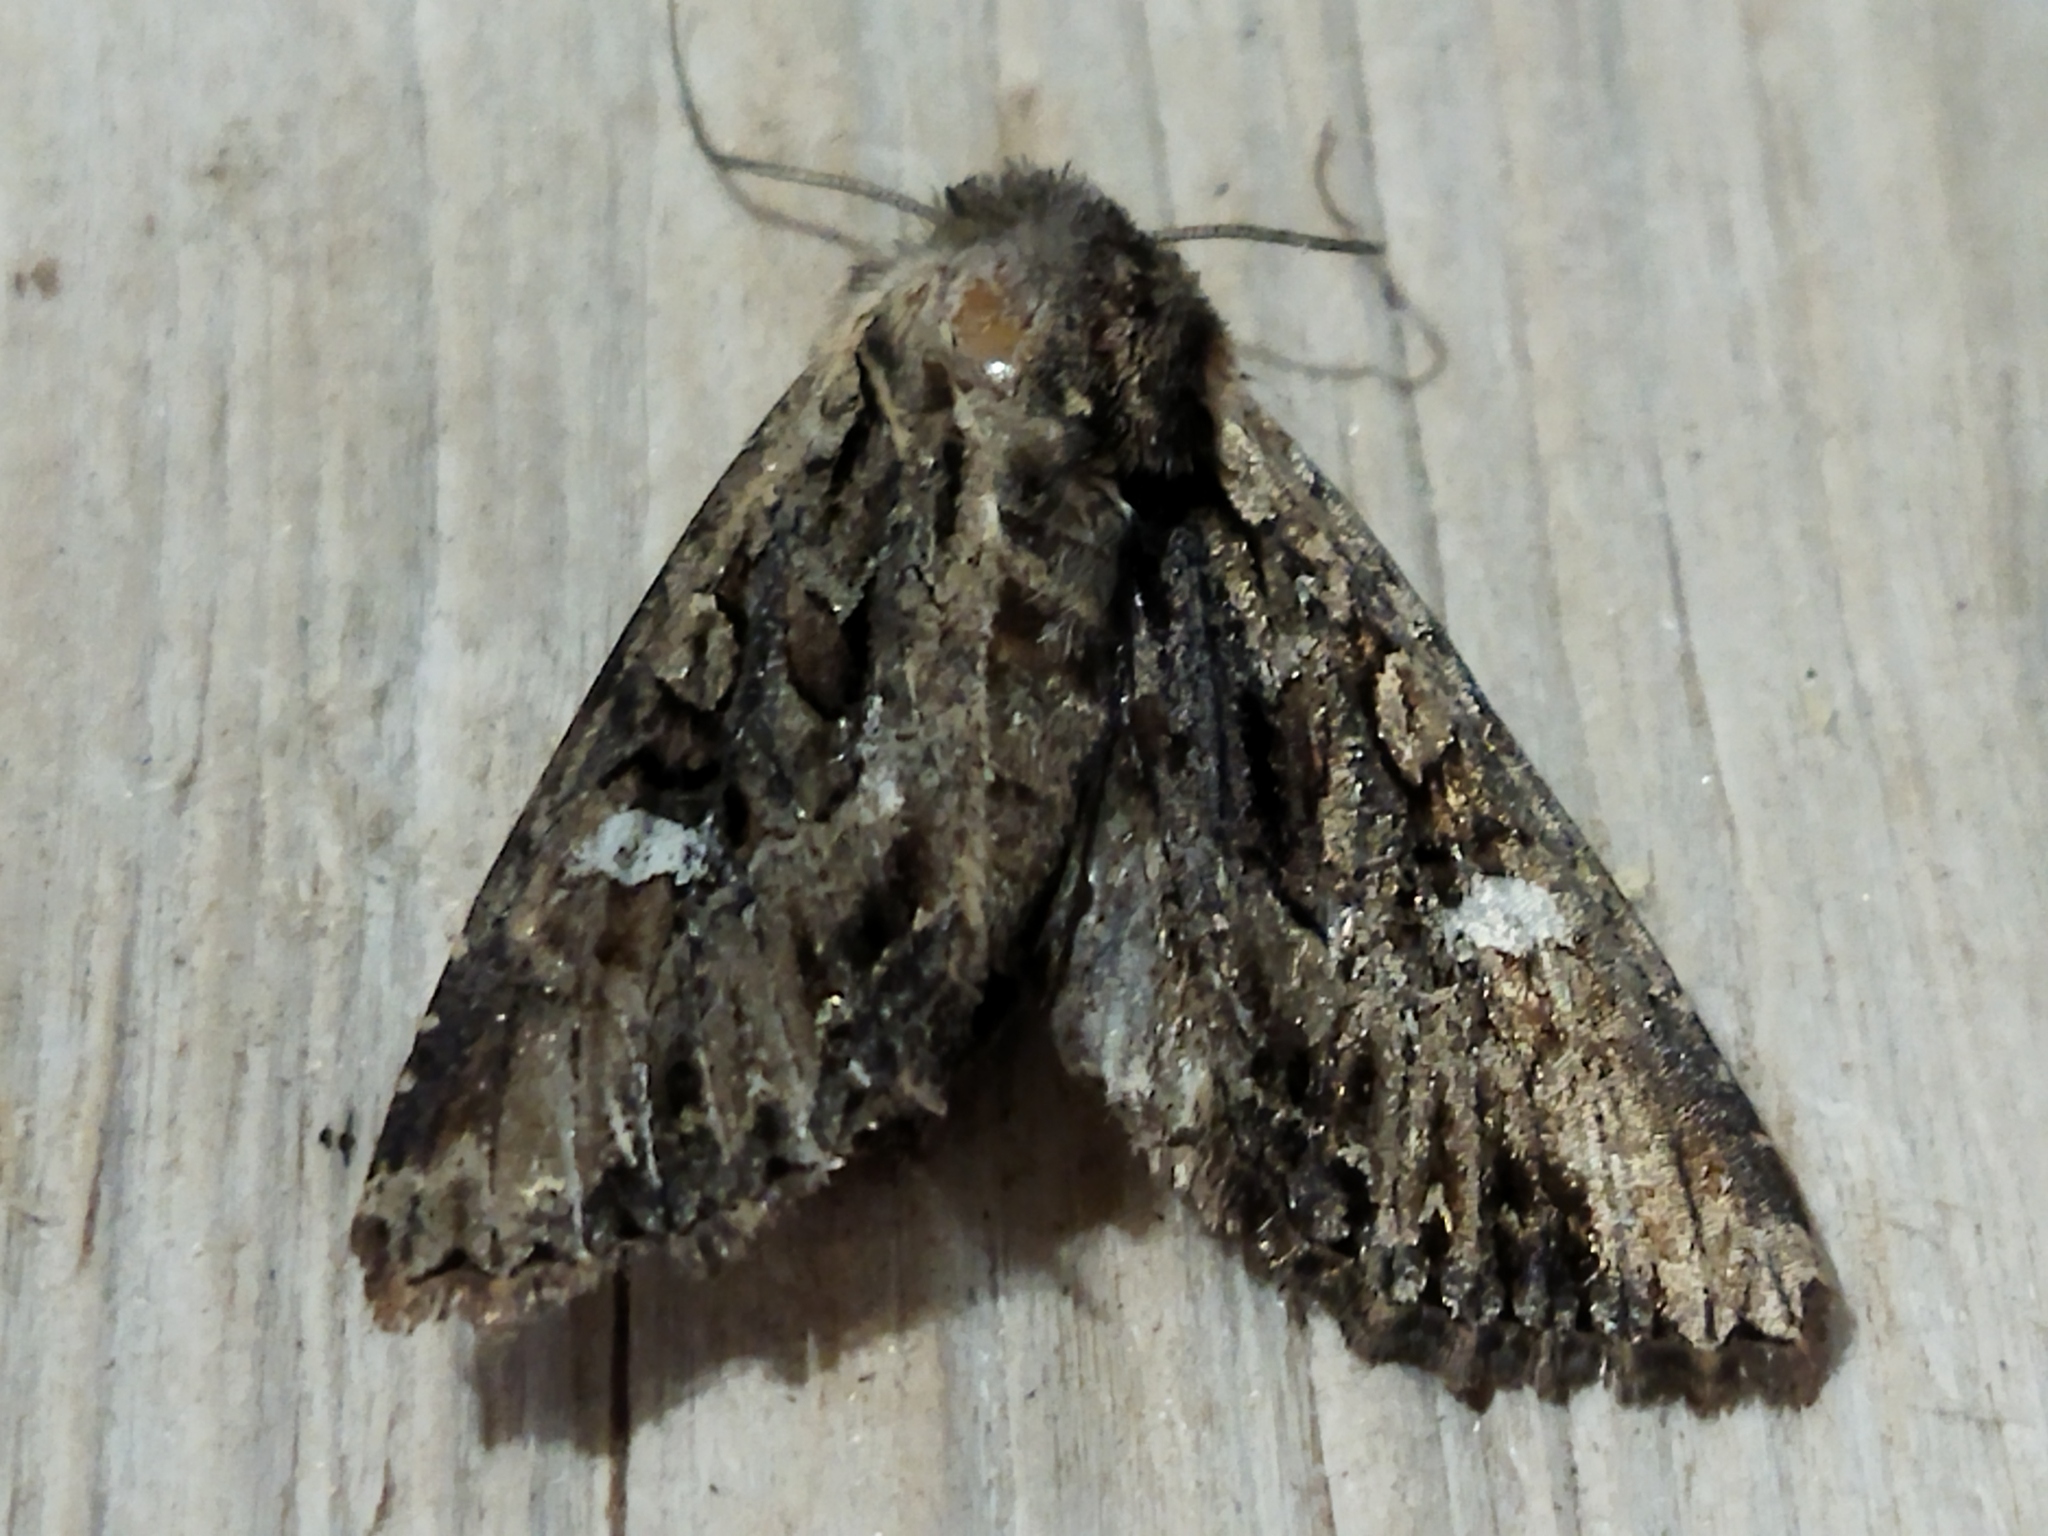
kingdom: Animalia
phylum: Arthropoda
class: Insecta
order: Lepidoptera
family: Noctuidae
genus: Polymixis
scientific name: Polymixis trisignata
